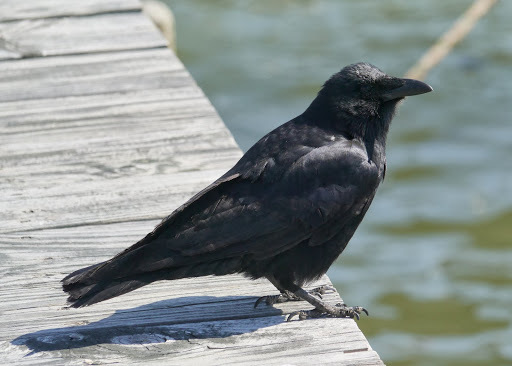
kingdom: Animalia
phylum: Chordata
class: Aves
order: Passeriformes
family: Corvidae
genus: Corvus
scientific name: Corvus
